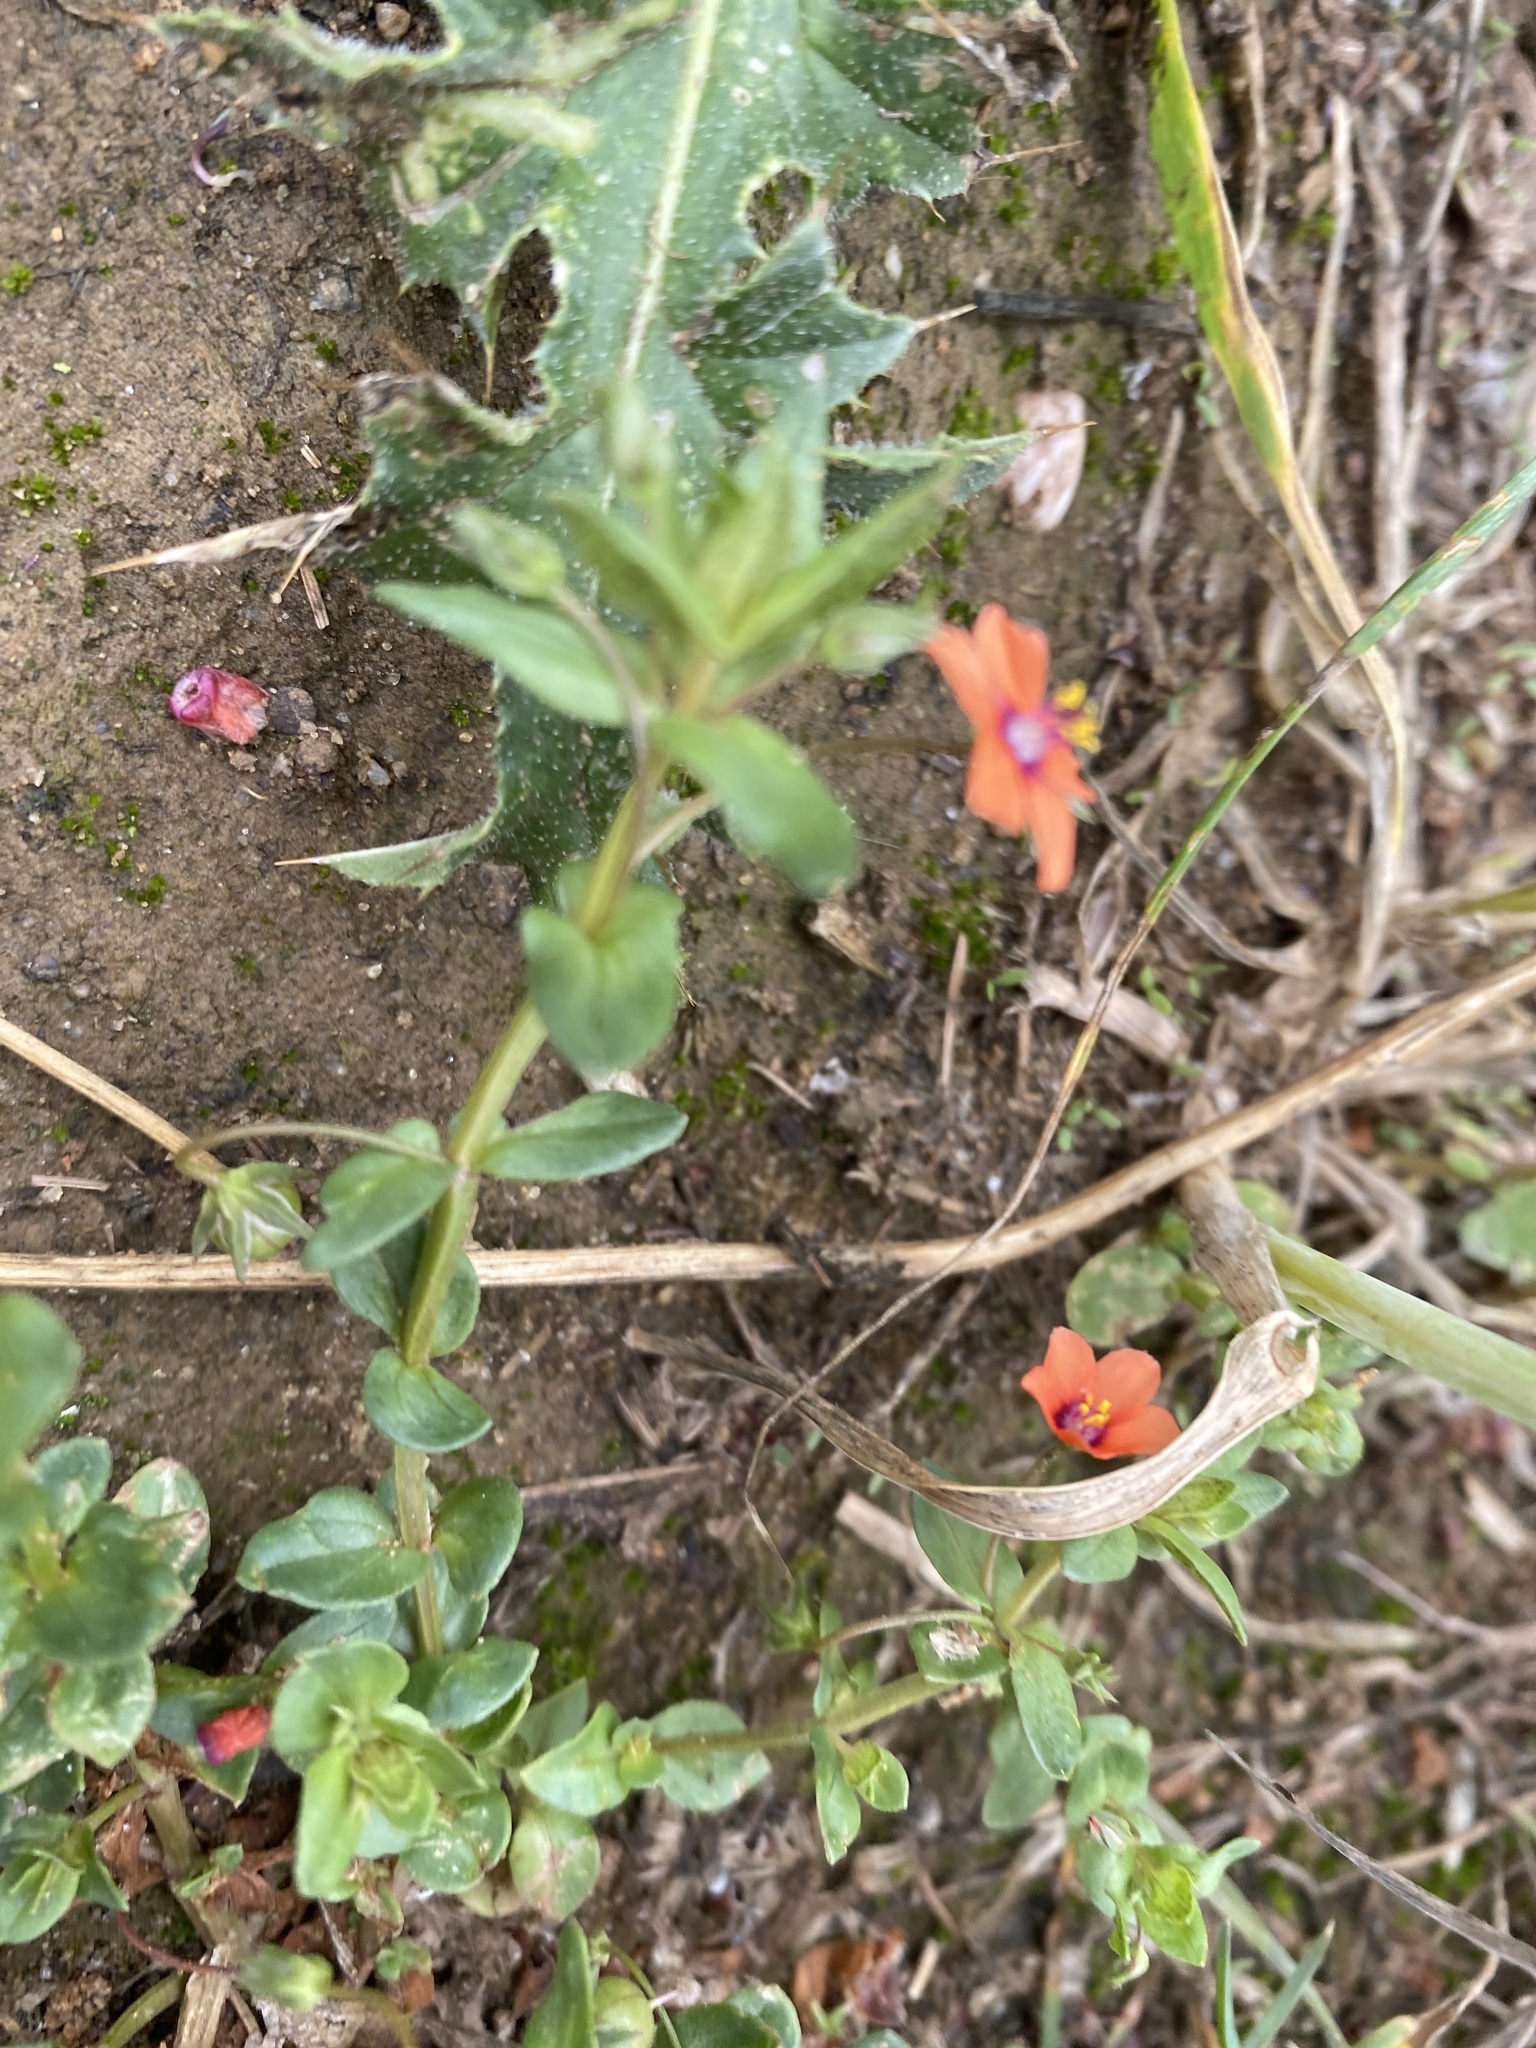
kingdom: Plantae
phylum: Tracheophyta
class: Magnoliopsida
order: Ericales
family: Primulaceae
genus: Lysimachia
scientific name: Lysimachia arvensis
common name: Scarlet pimpernel
